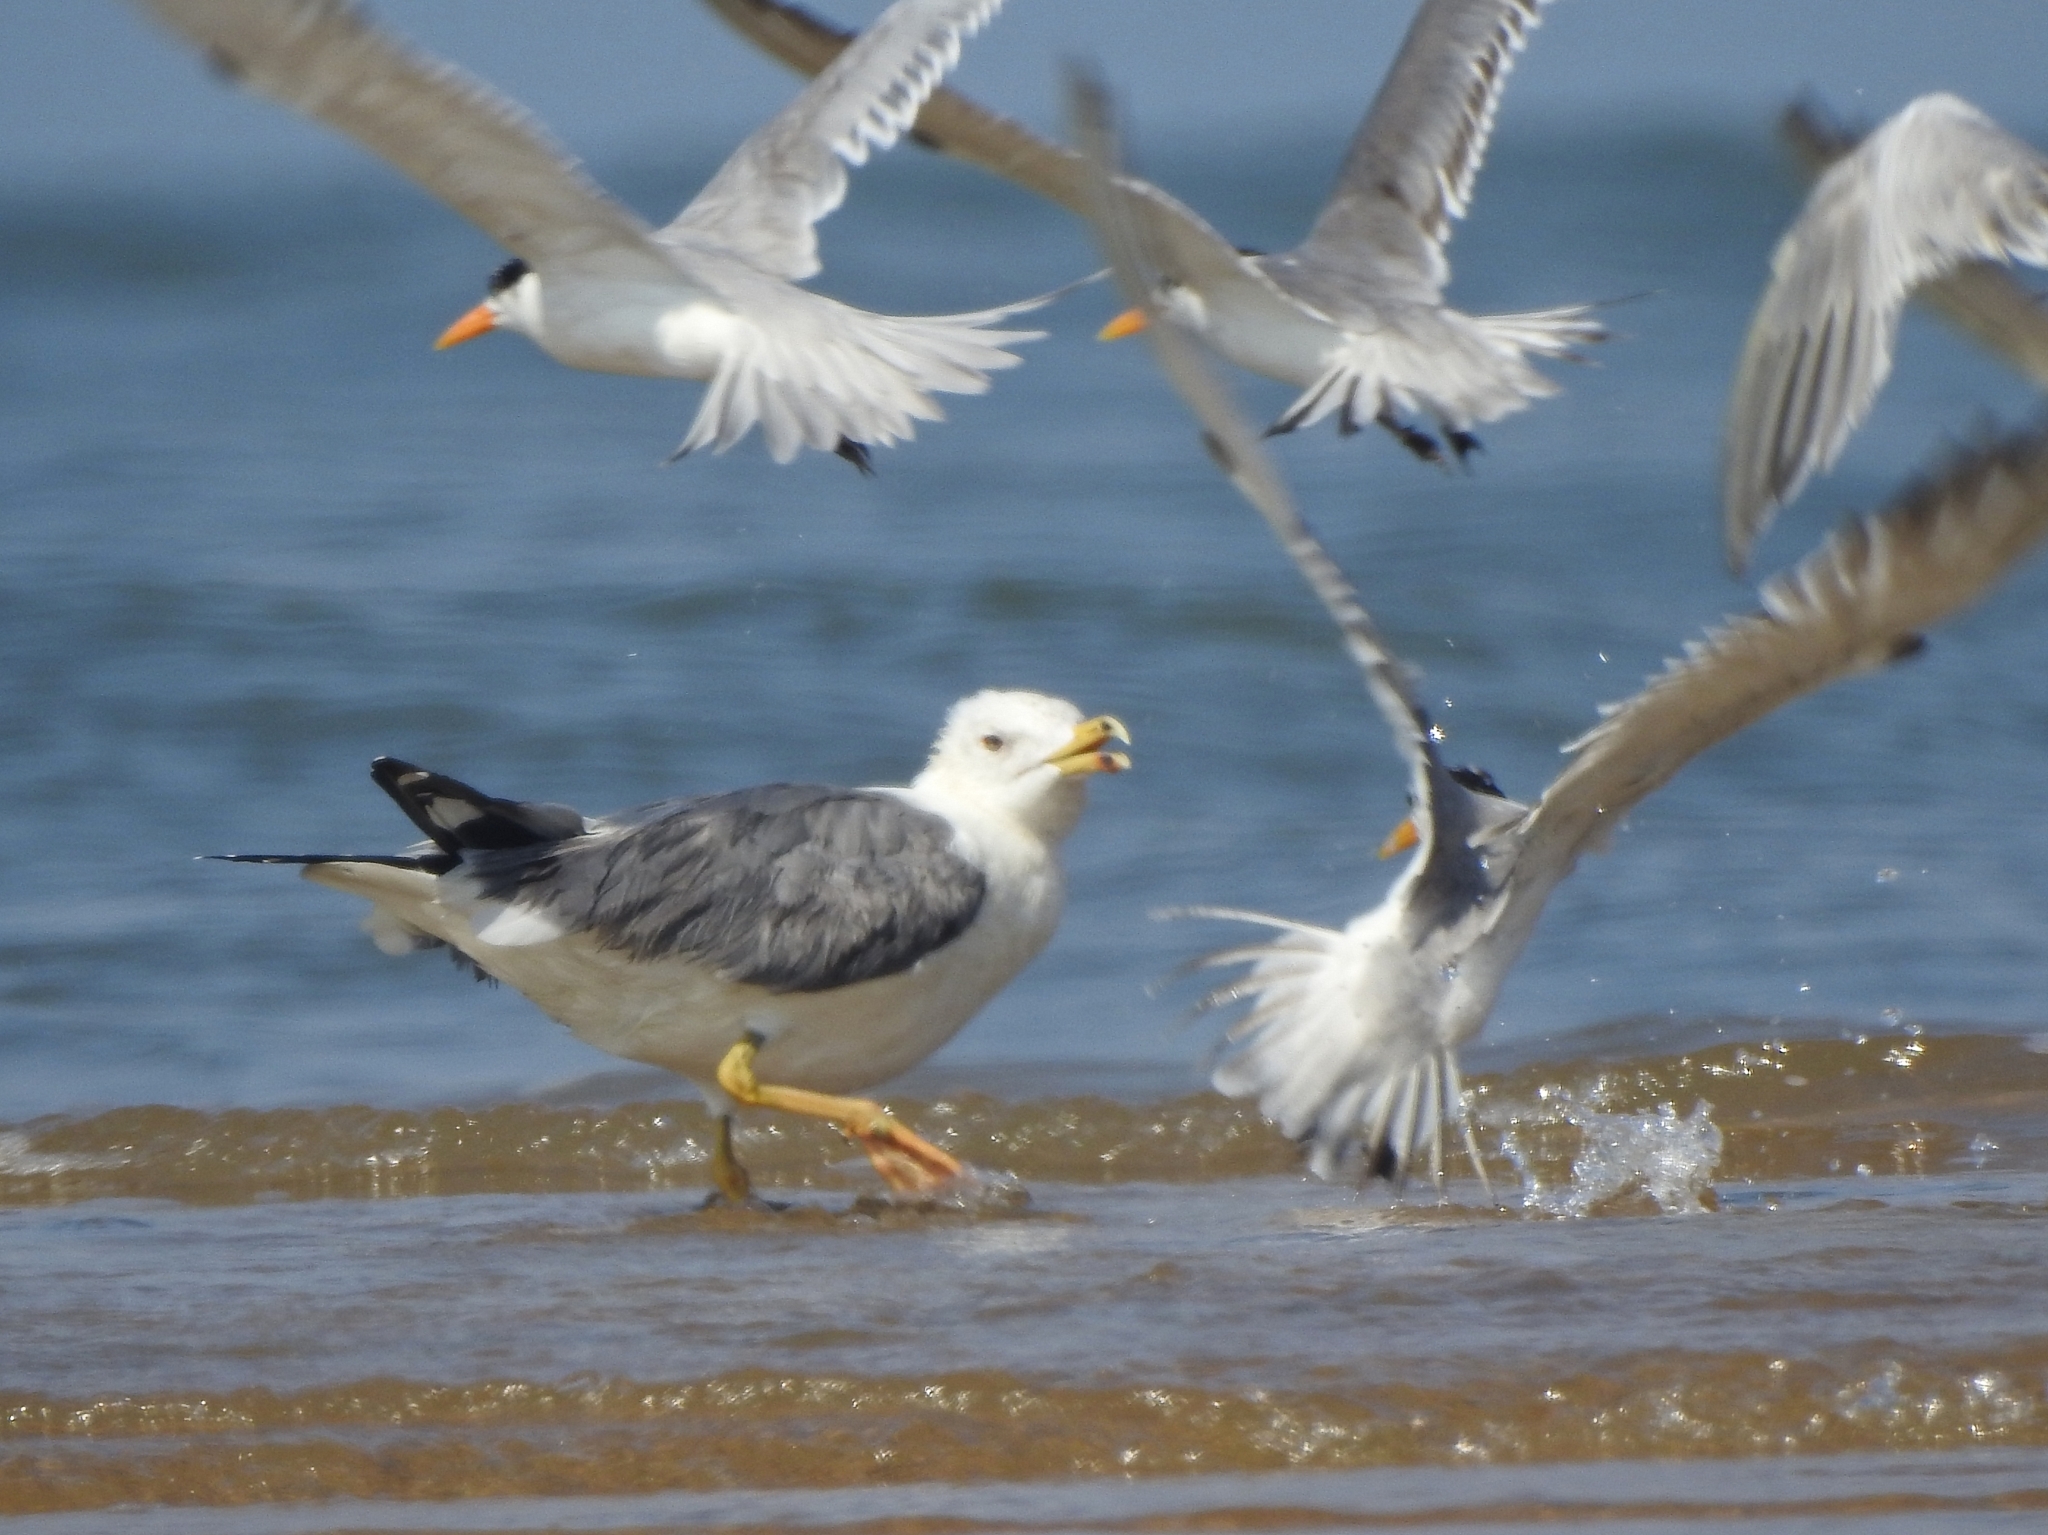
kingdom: Animalia
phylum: Chordata
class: Aves
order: Charadriiformes
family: Laridae
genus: Larus
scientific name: Larus fuscus
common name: Lesser black-backed gull
